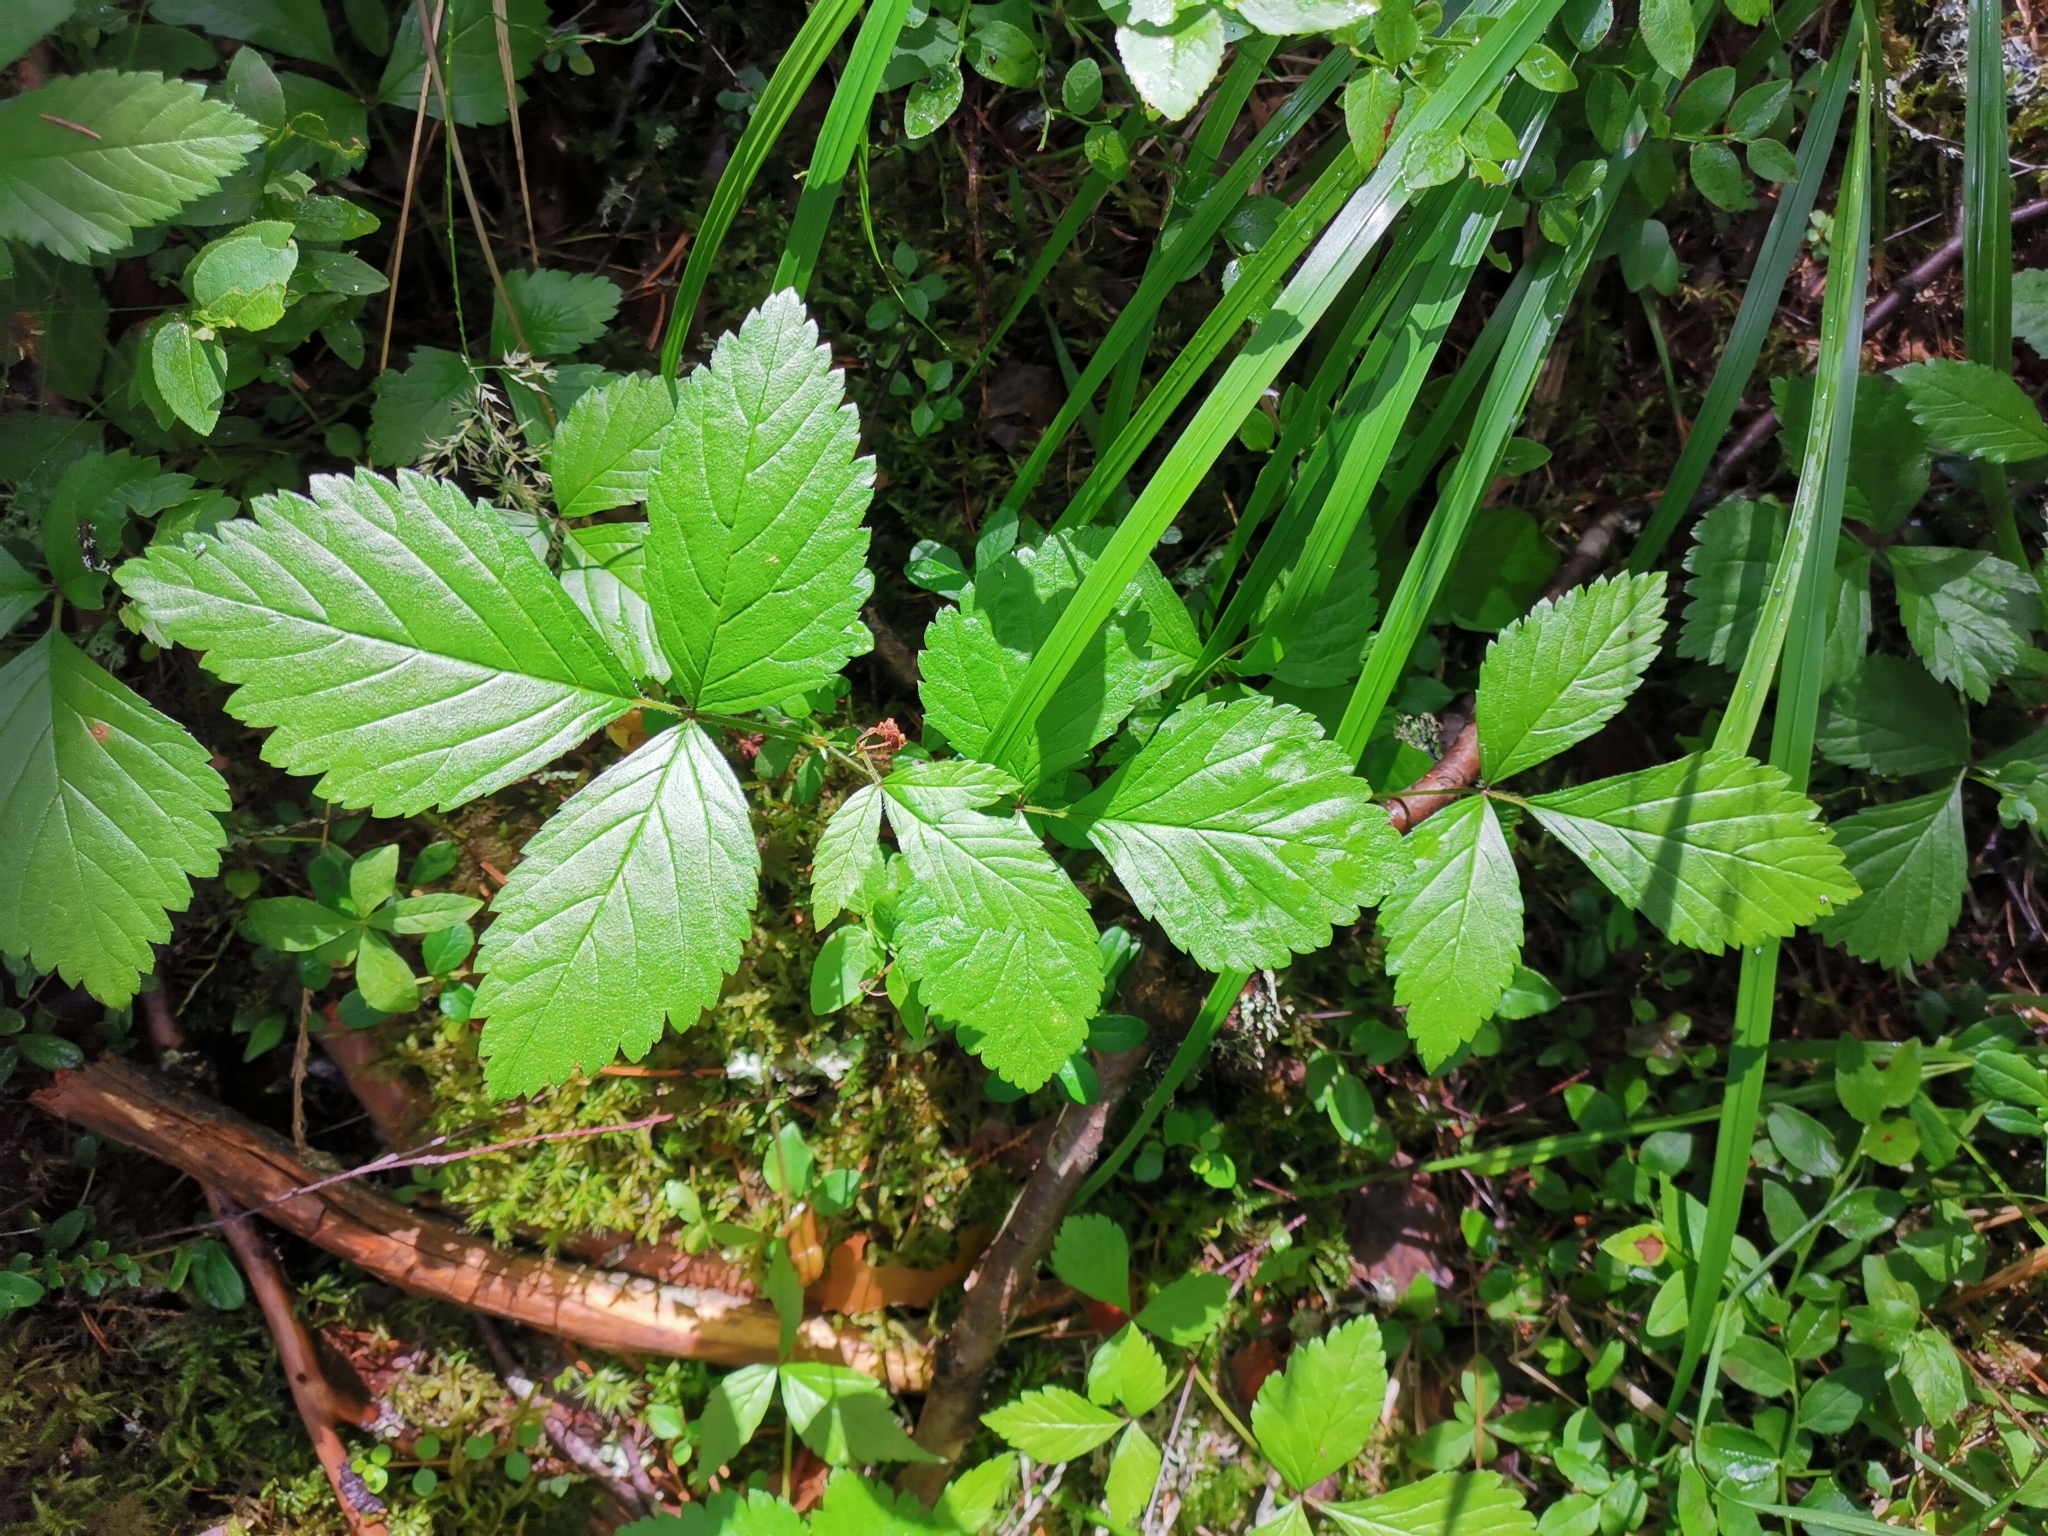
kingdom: Plantae
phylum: Tracheophyta
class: Magnoliopsida
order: Rosales
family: Rosaceae
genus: Rubus
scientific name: Rubus saxatilis
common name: Stone bramble
